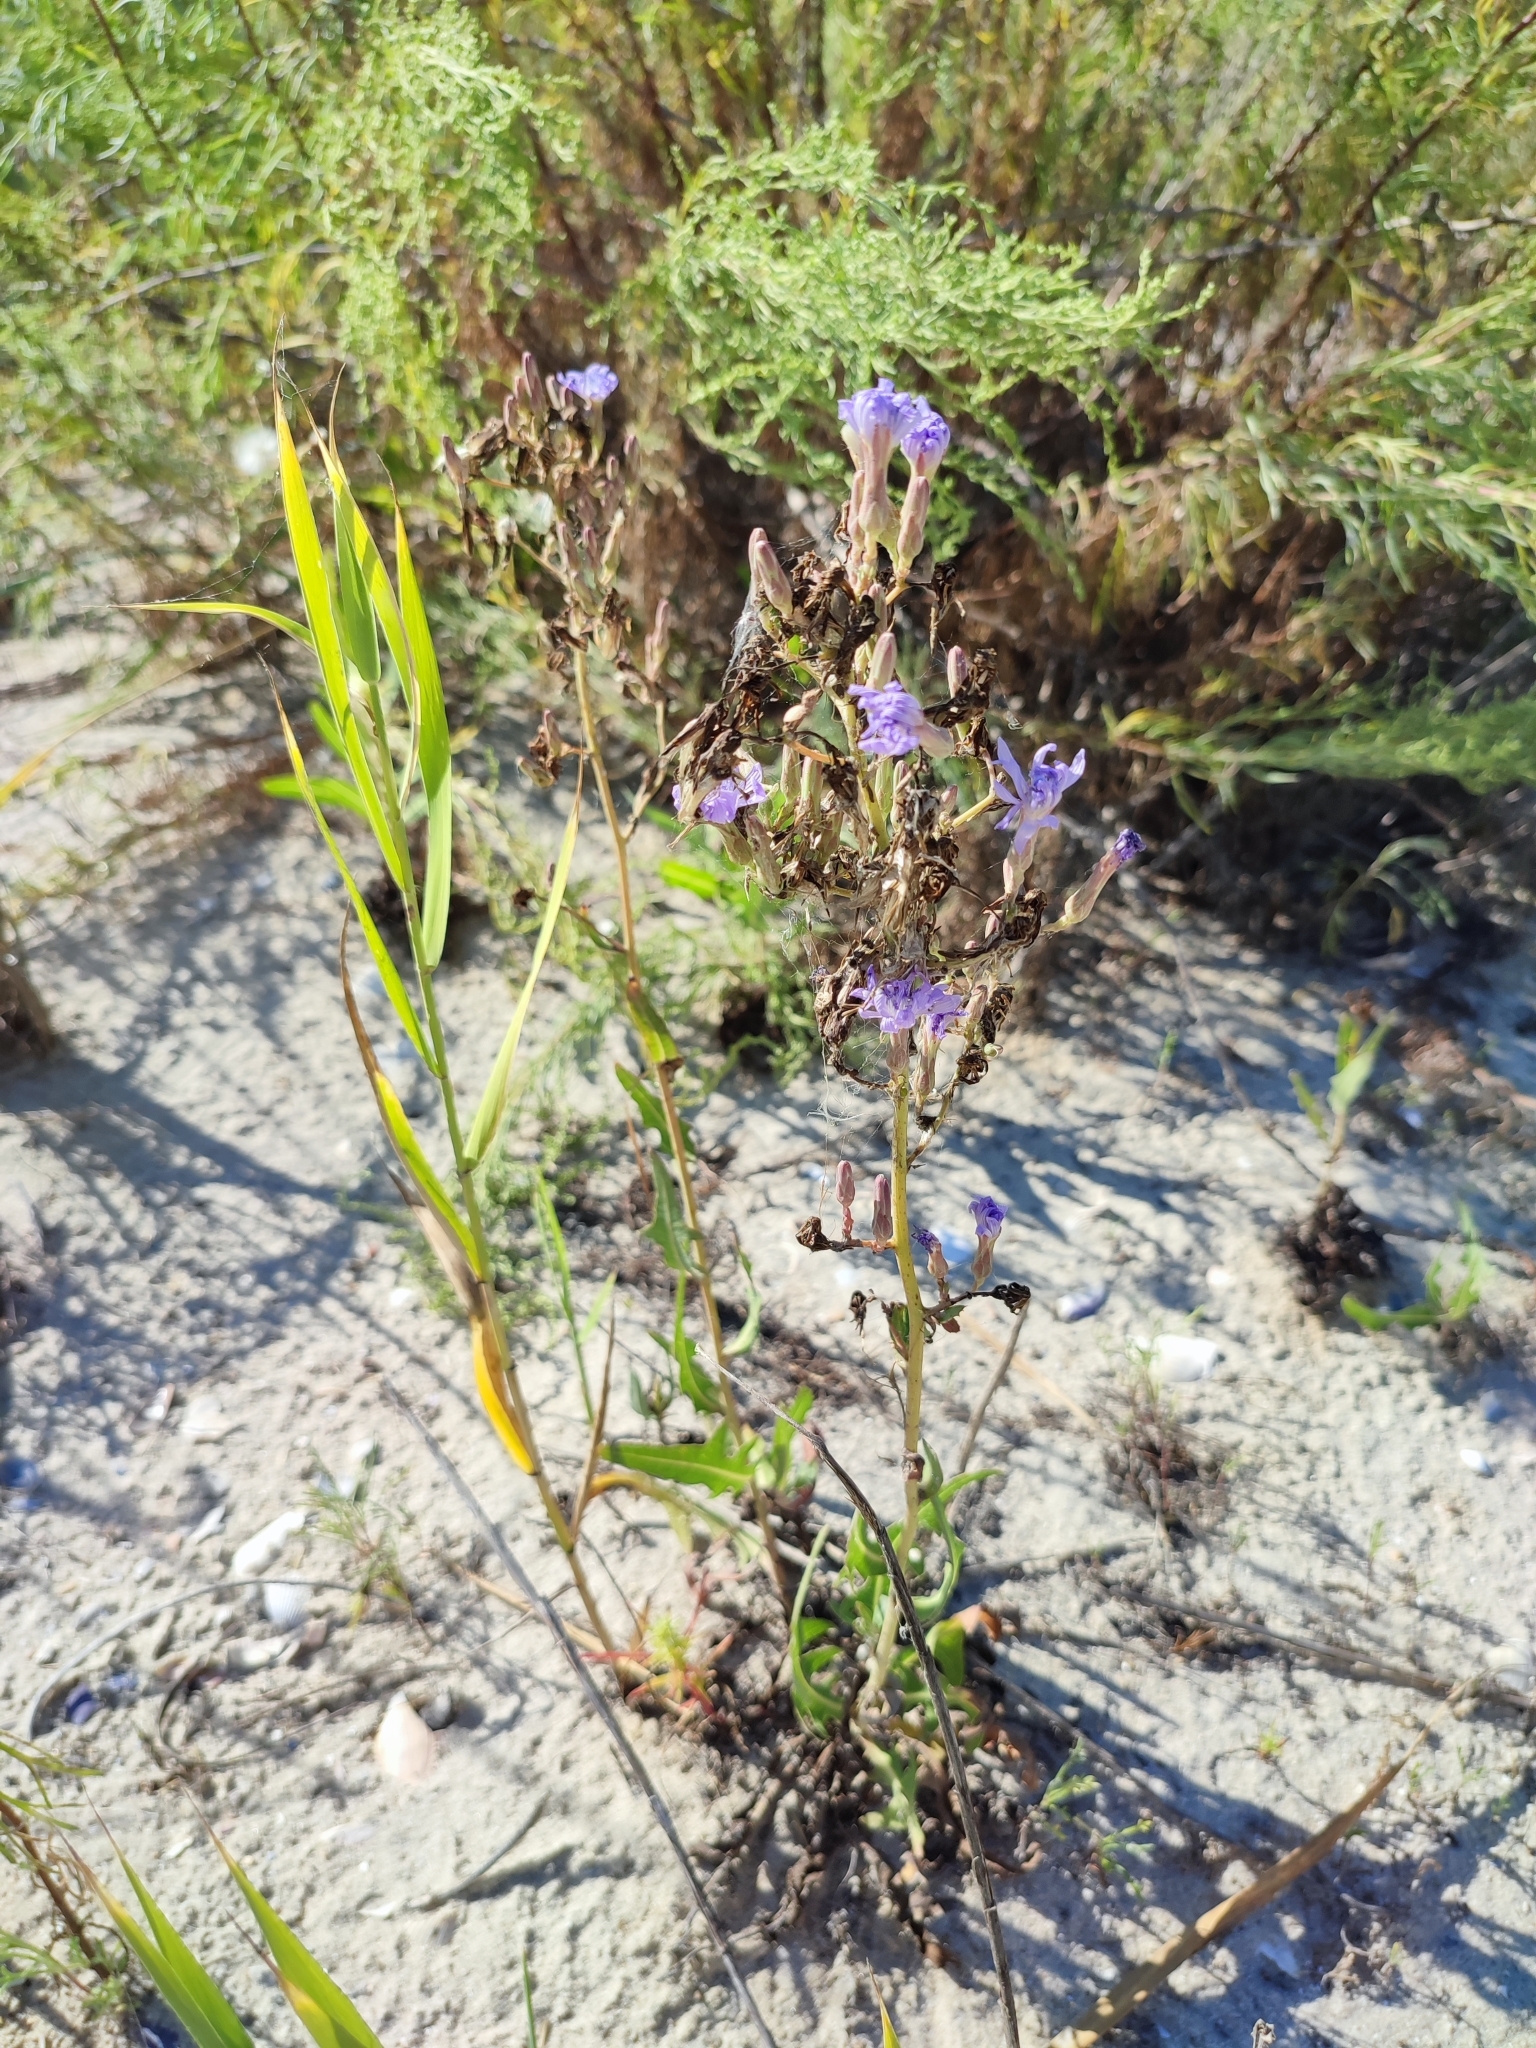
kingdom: Plantae
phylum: Tracheophyta
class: Magnoliopsida
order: Asterales
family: Asteraceae
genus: Lactuca
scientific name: Lactuca tatarica
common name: Blue lettuce
